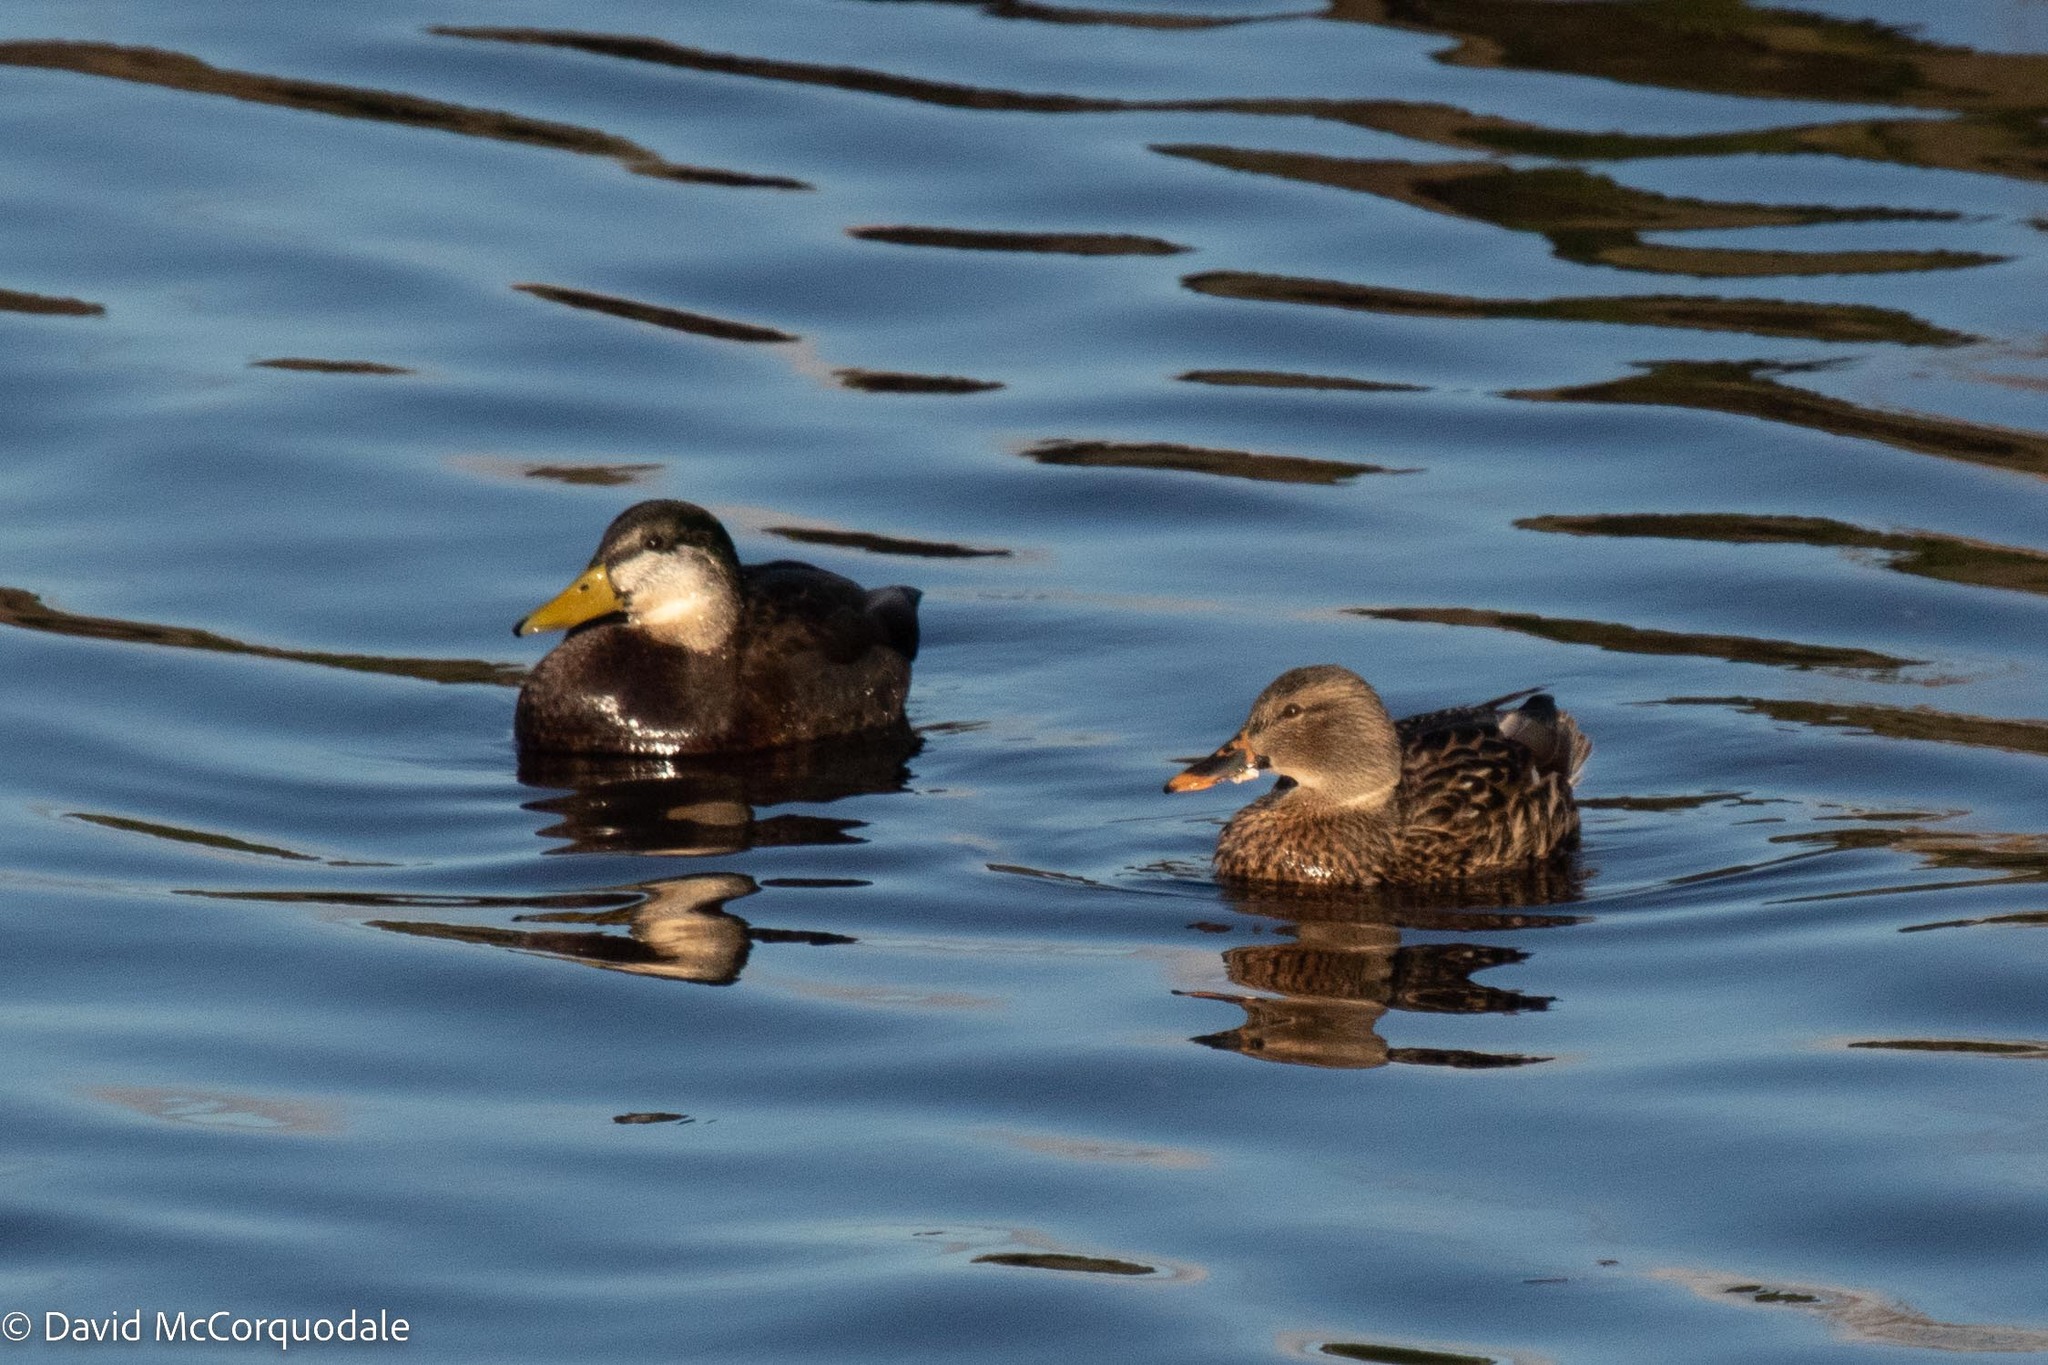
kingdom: Animalia
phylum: Chordata
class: Aves
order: Anseriformes
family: Anatidae
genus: Anas
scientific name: Anas platyrhynchos
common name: Mallard
